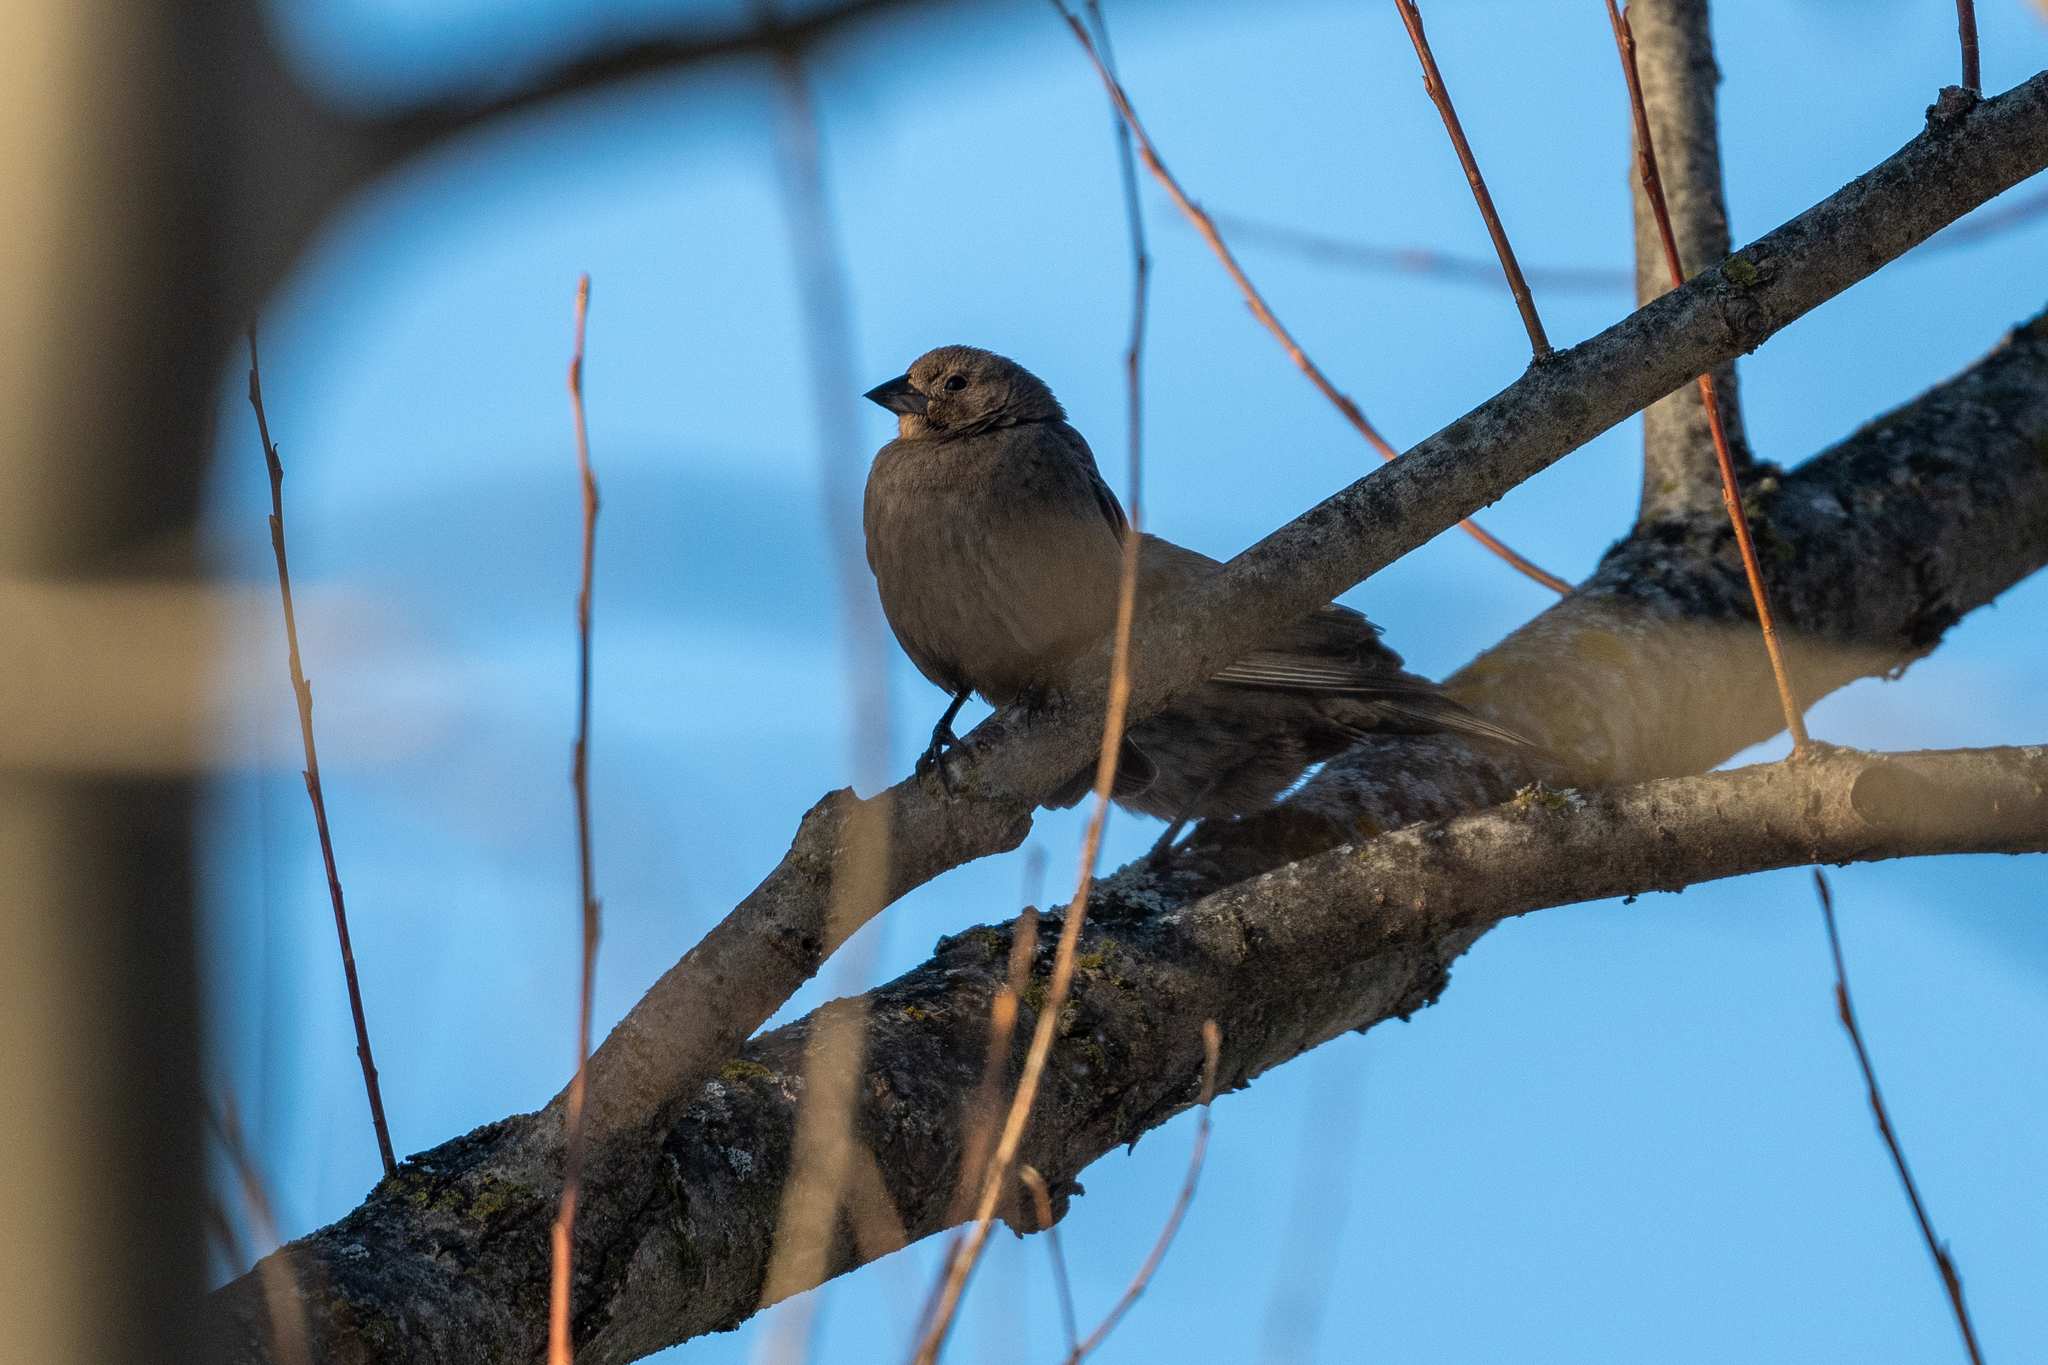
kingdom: Animalia
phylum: Chordata
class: Aves
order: Passeriformes
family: Icteridae
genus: Molothrus
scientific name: Molothrus ater
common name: Brown-headed cowbird
